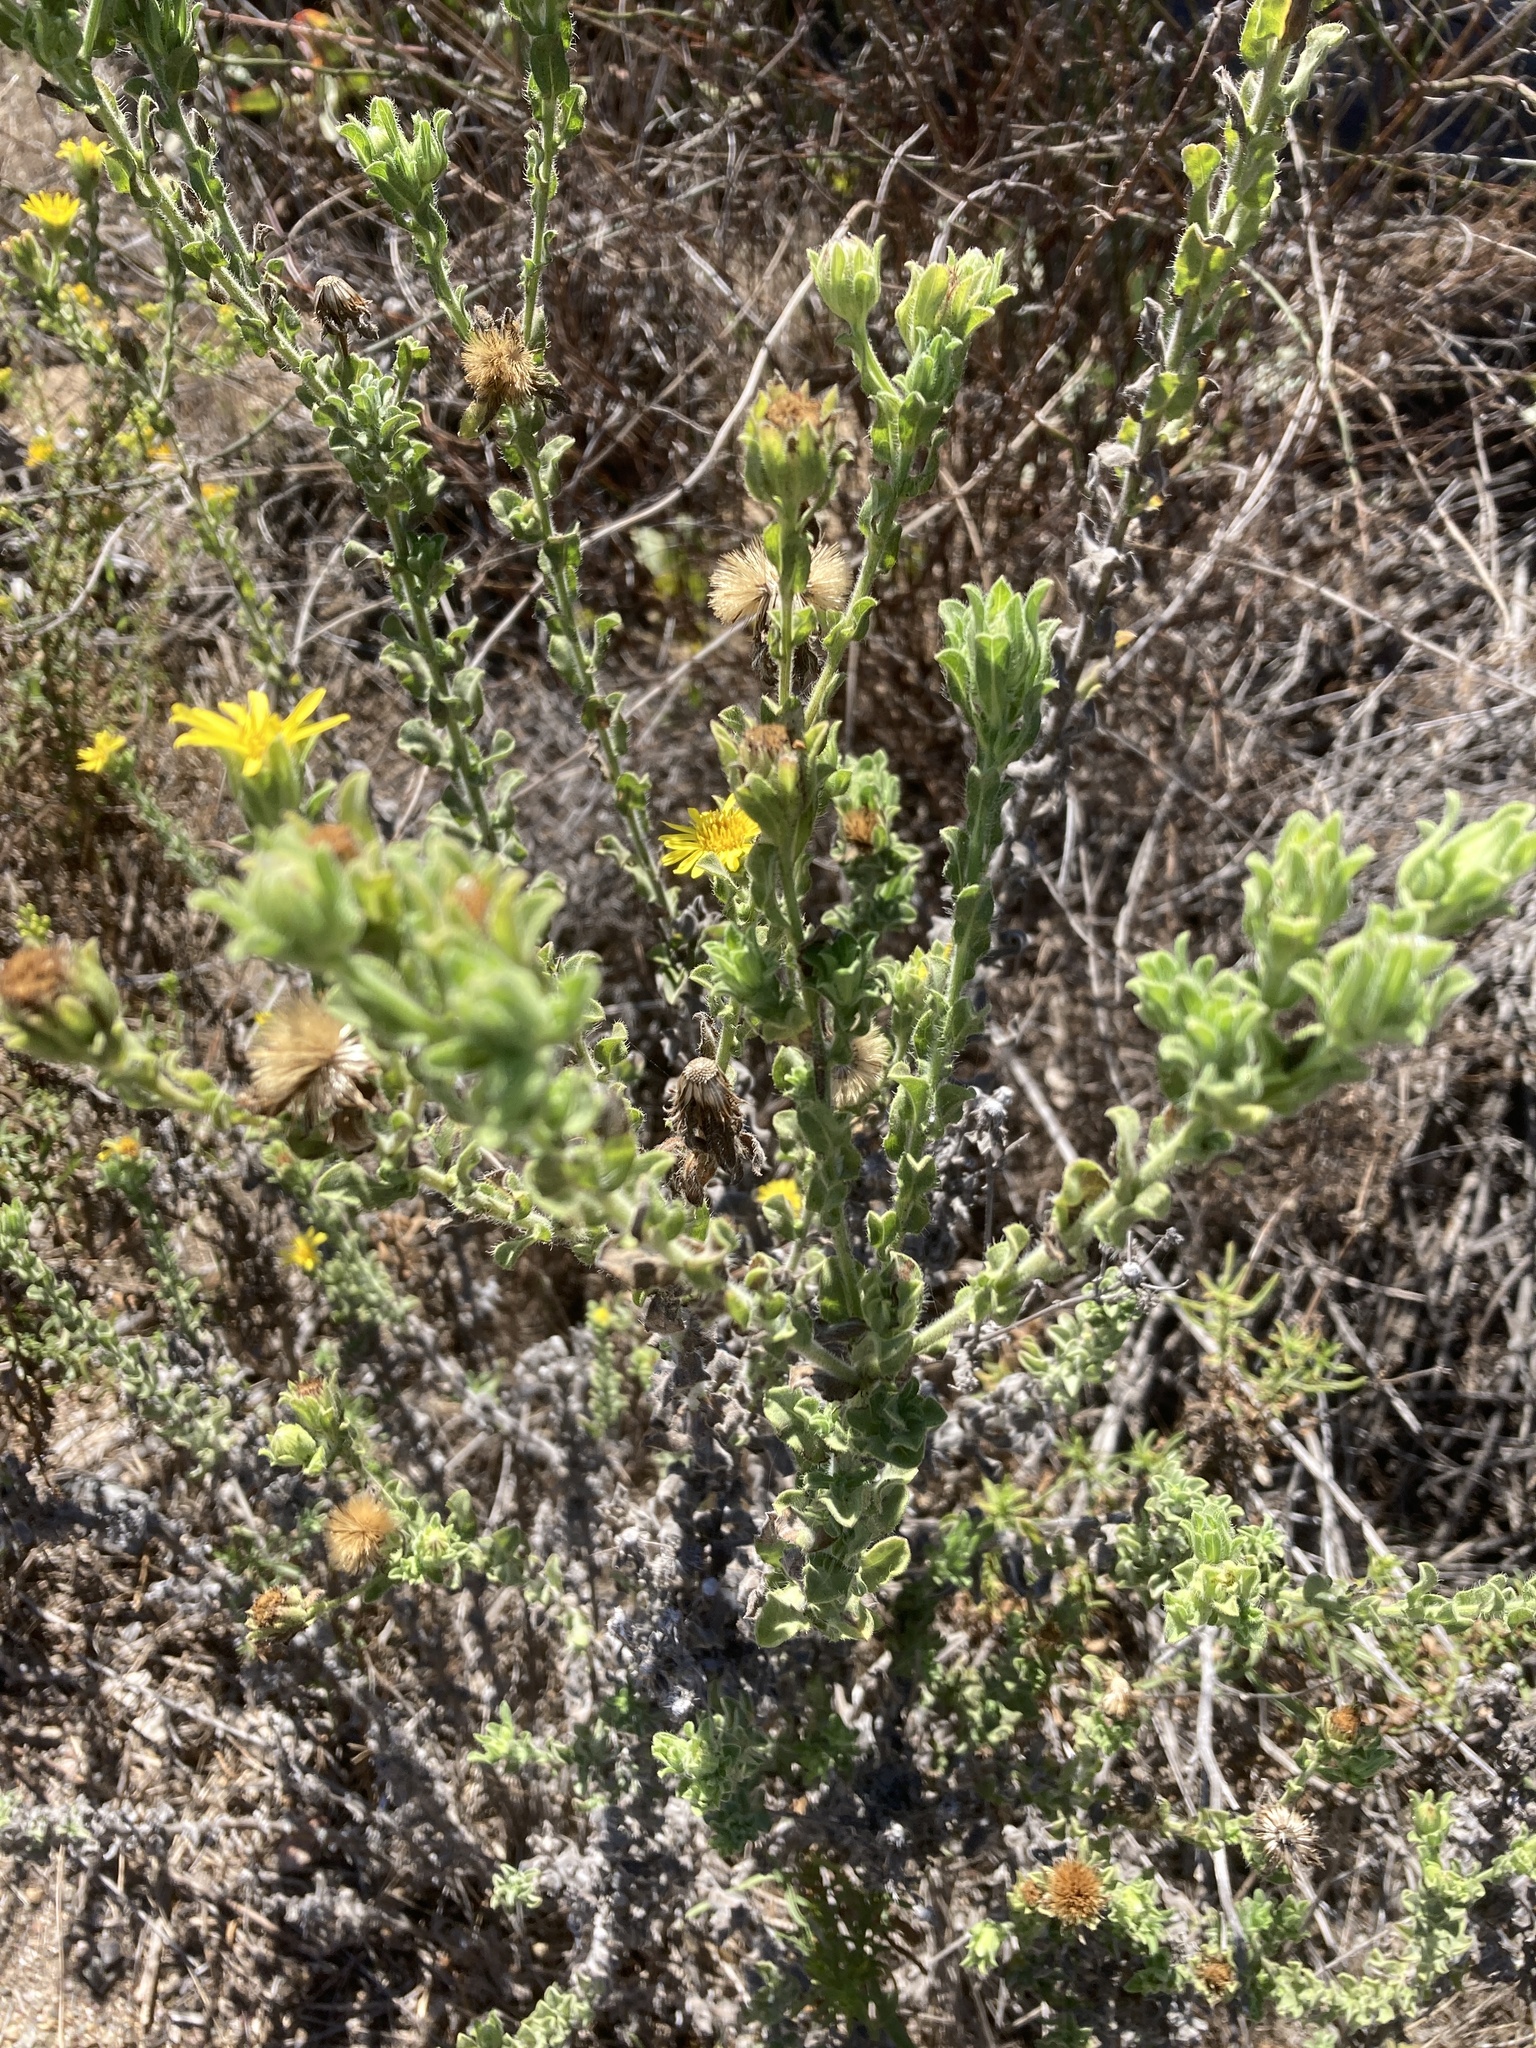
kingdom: Plantae
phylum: Tracheophyta
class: Magnoliopsida
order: Asterales
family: Asteraceae
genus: Heterotheca
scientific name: Heterotheca sessiliflora
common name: Sessile-flower golden-aster
